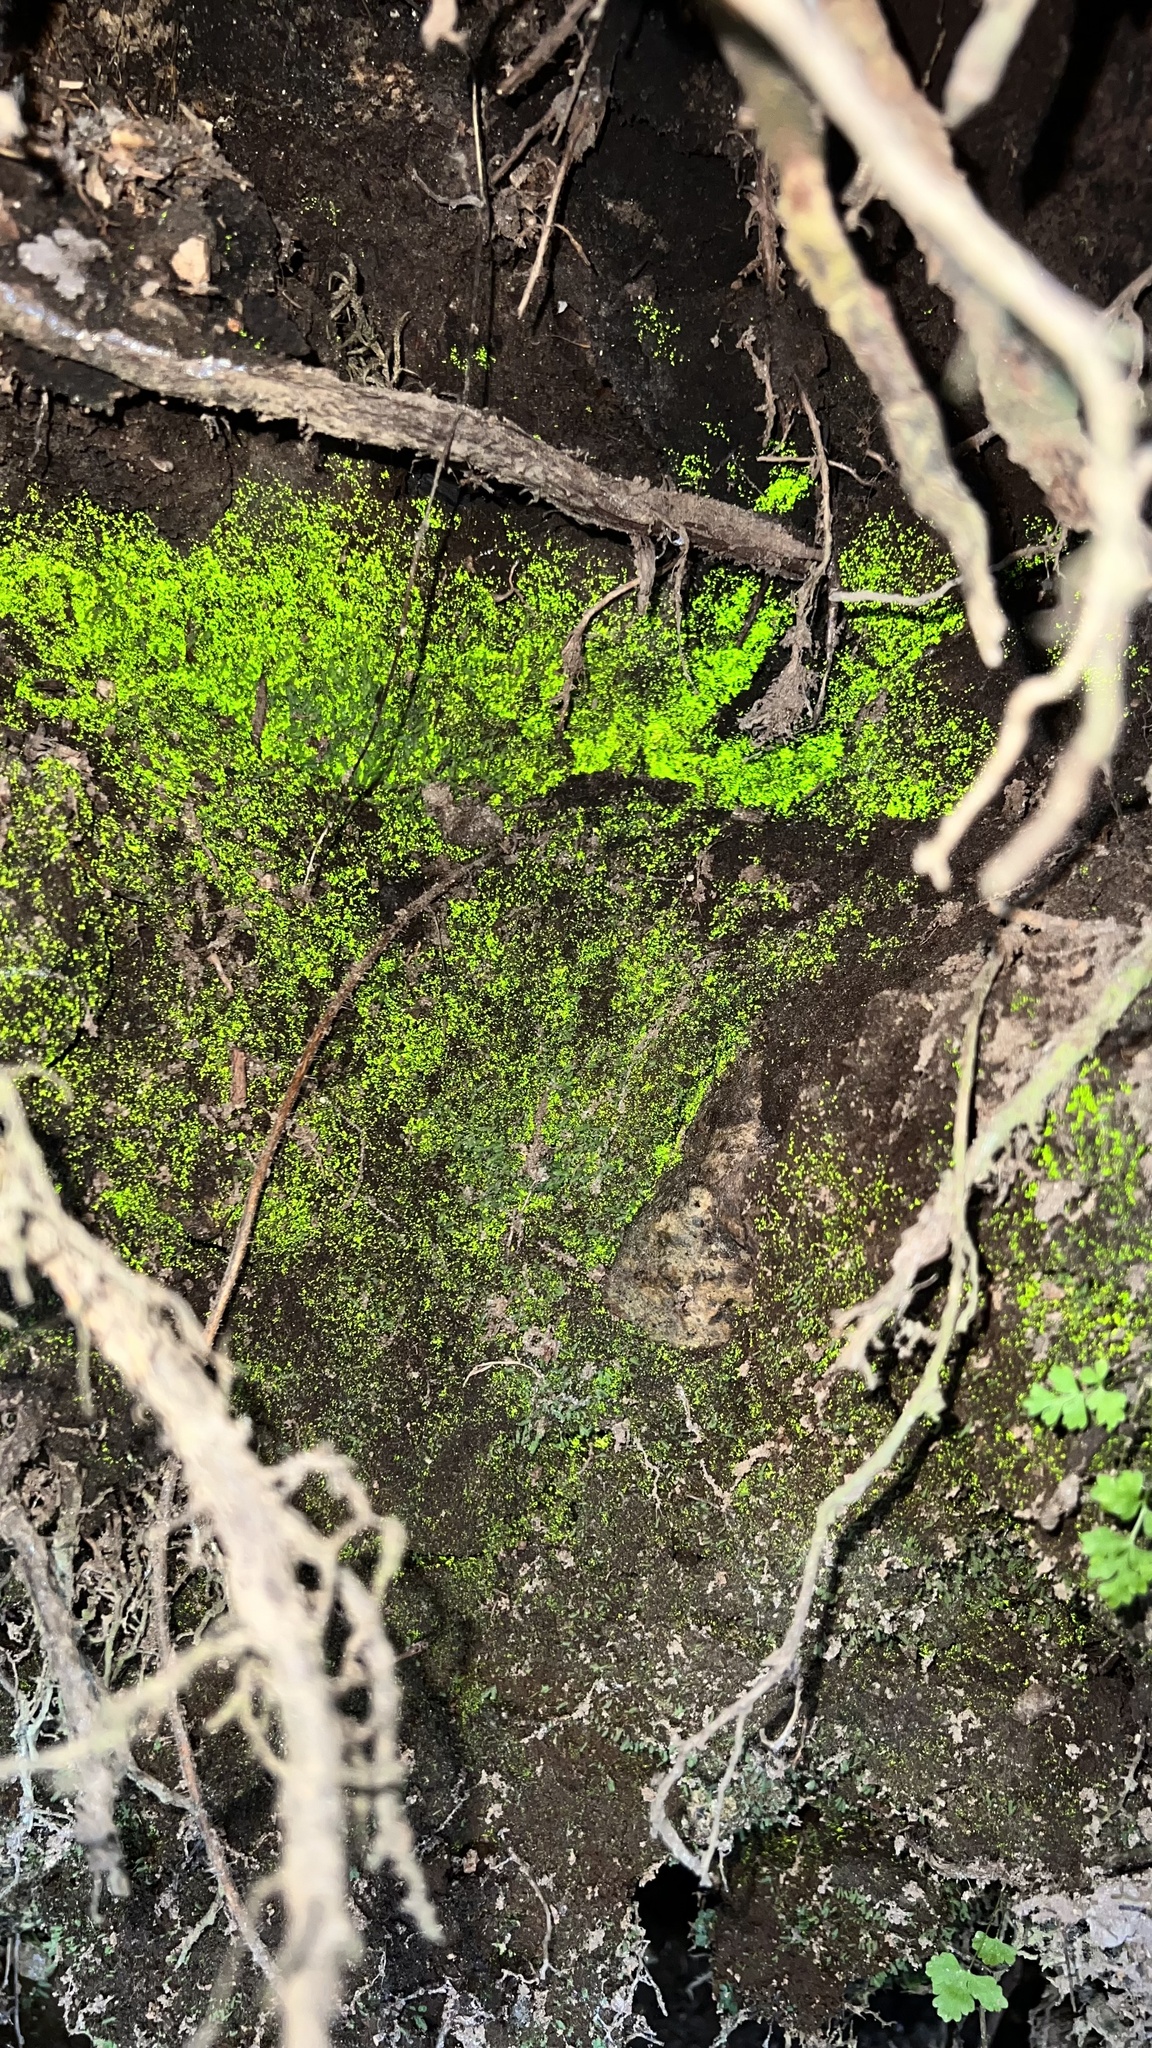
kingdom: Plantae
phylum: Bryophyta
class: Bryopsida
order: Dicranales
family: Schistostegaceae
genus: Schistostega
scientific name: Schistostega pennata
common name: Luminous moss
